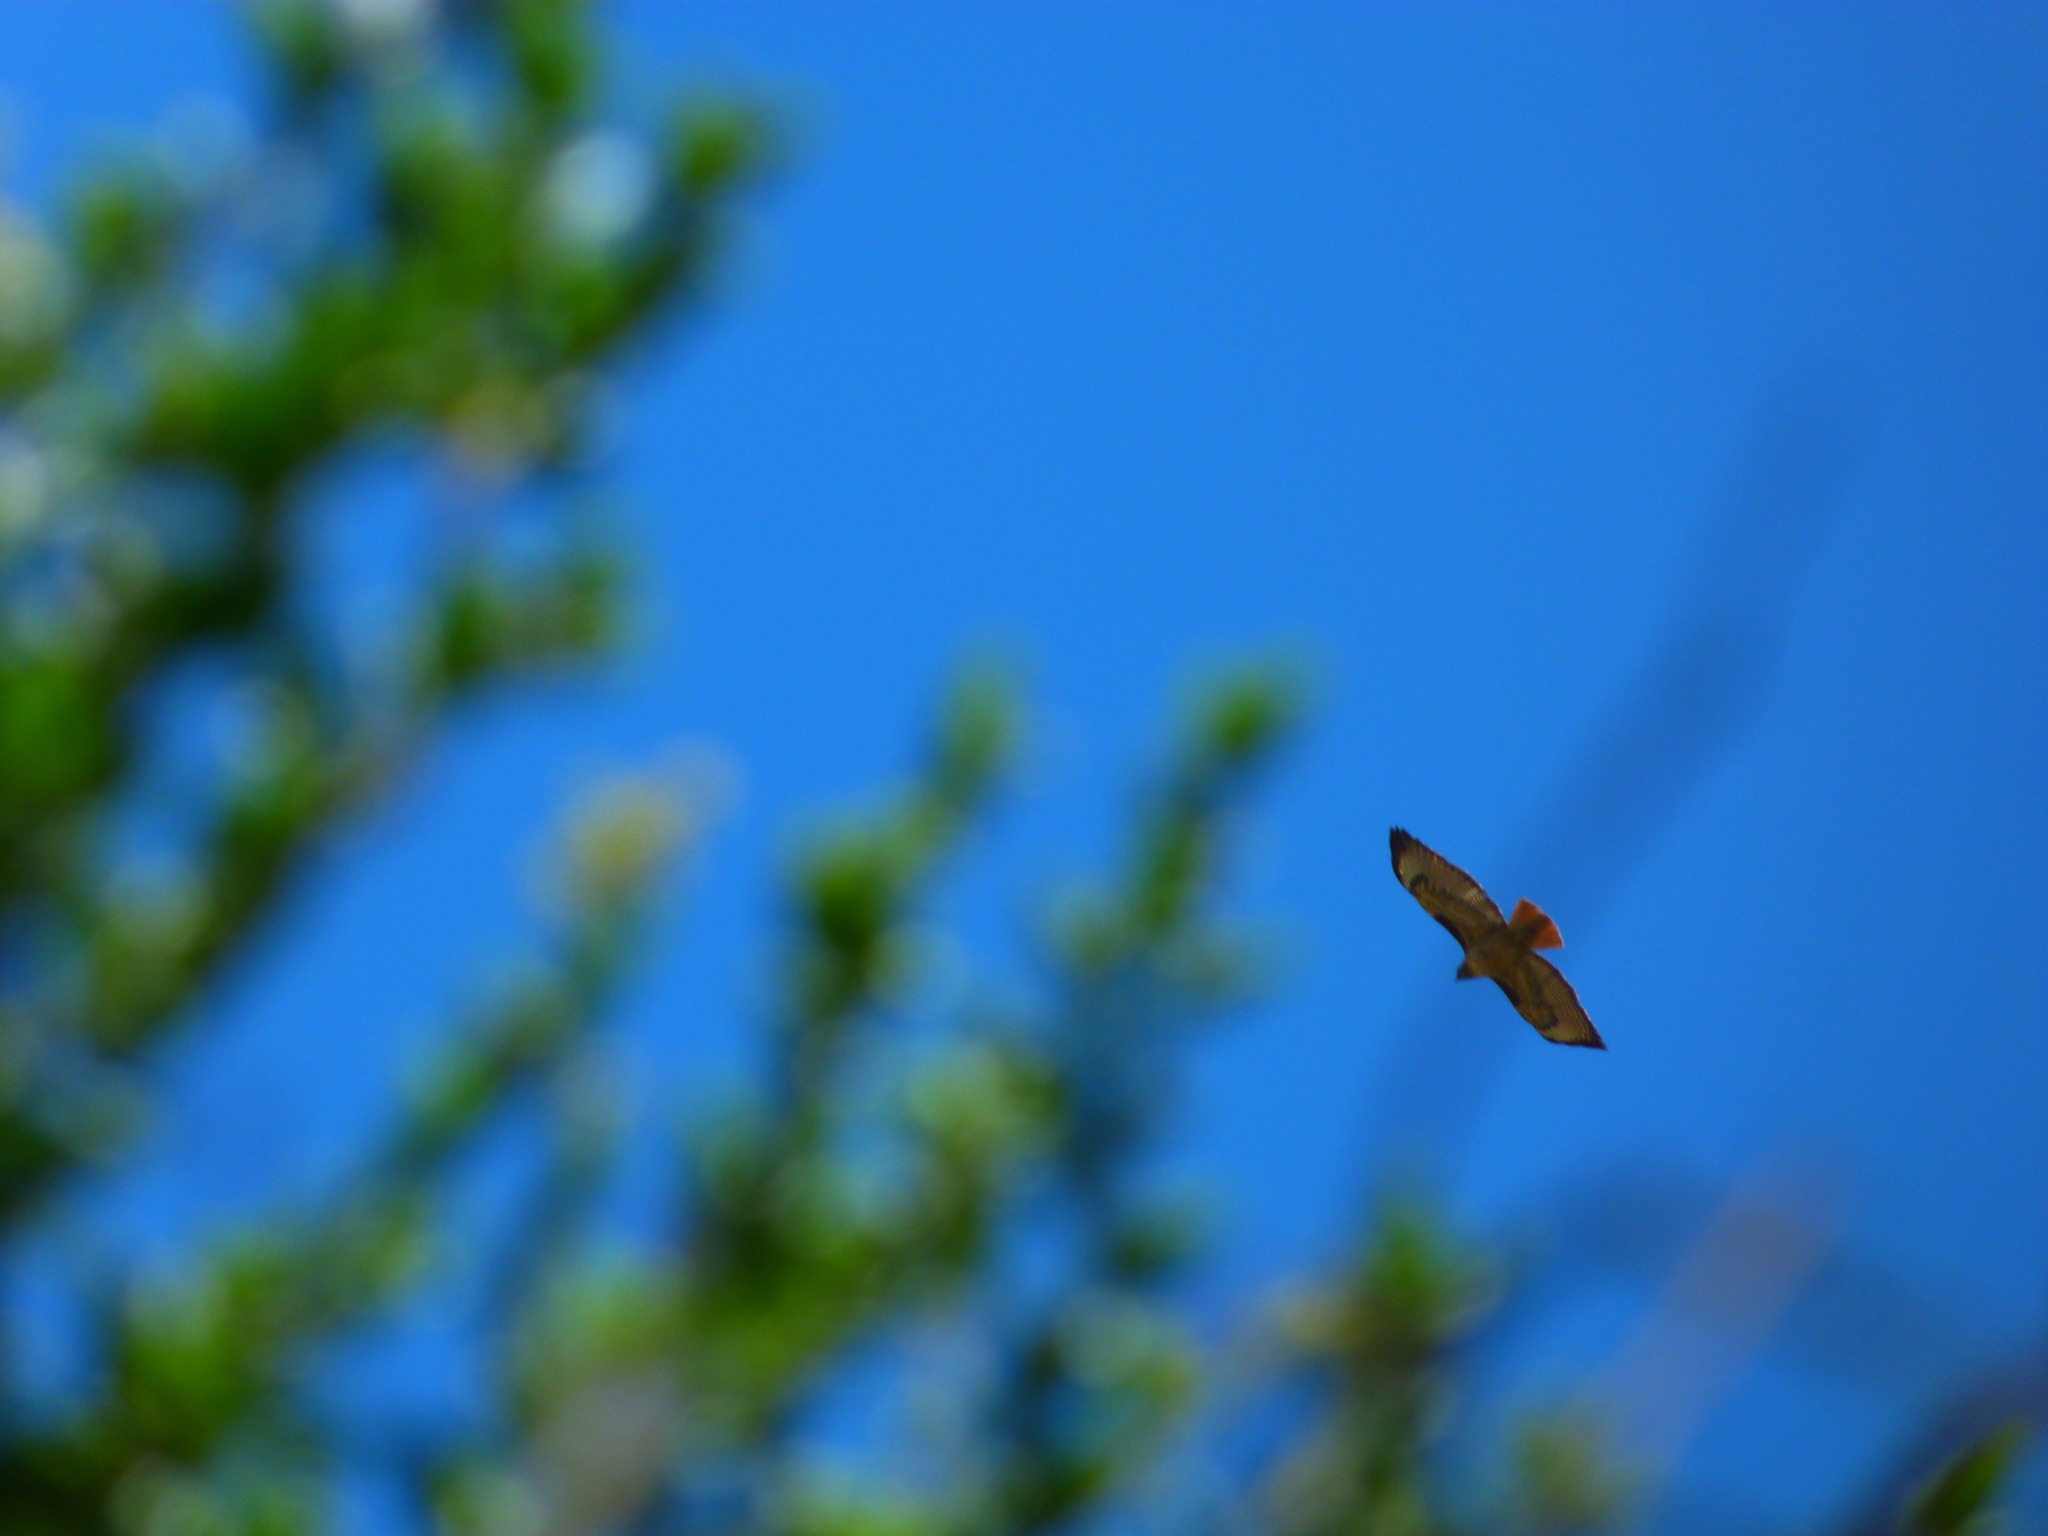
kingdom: Animalia
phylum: Chordata
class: Aves
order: Accipitriformes
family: Accipitridae
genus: Buteo
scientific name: Buteo jamaicensis
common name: Red-tailed hawk
